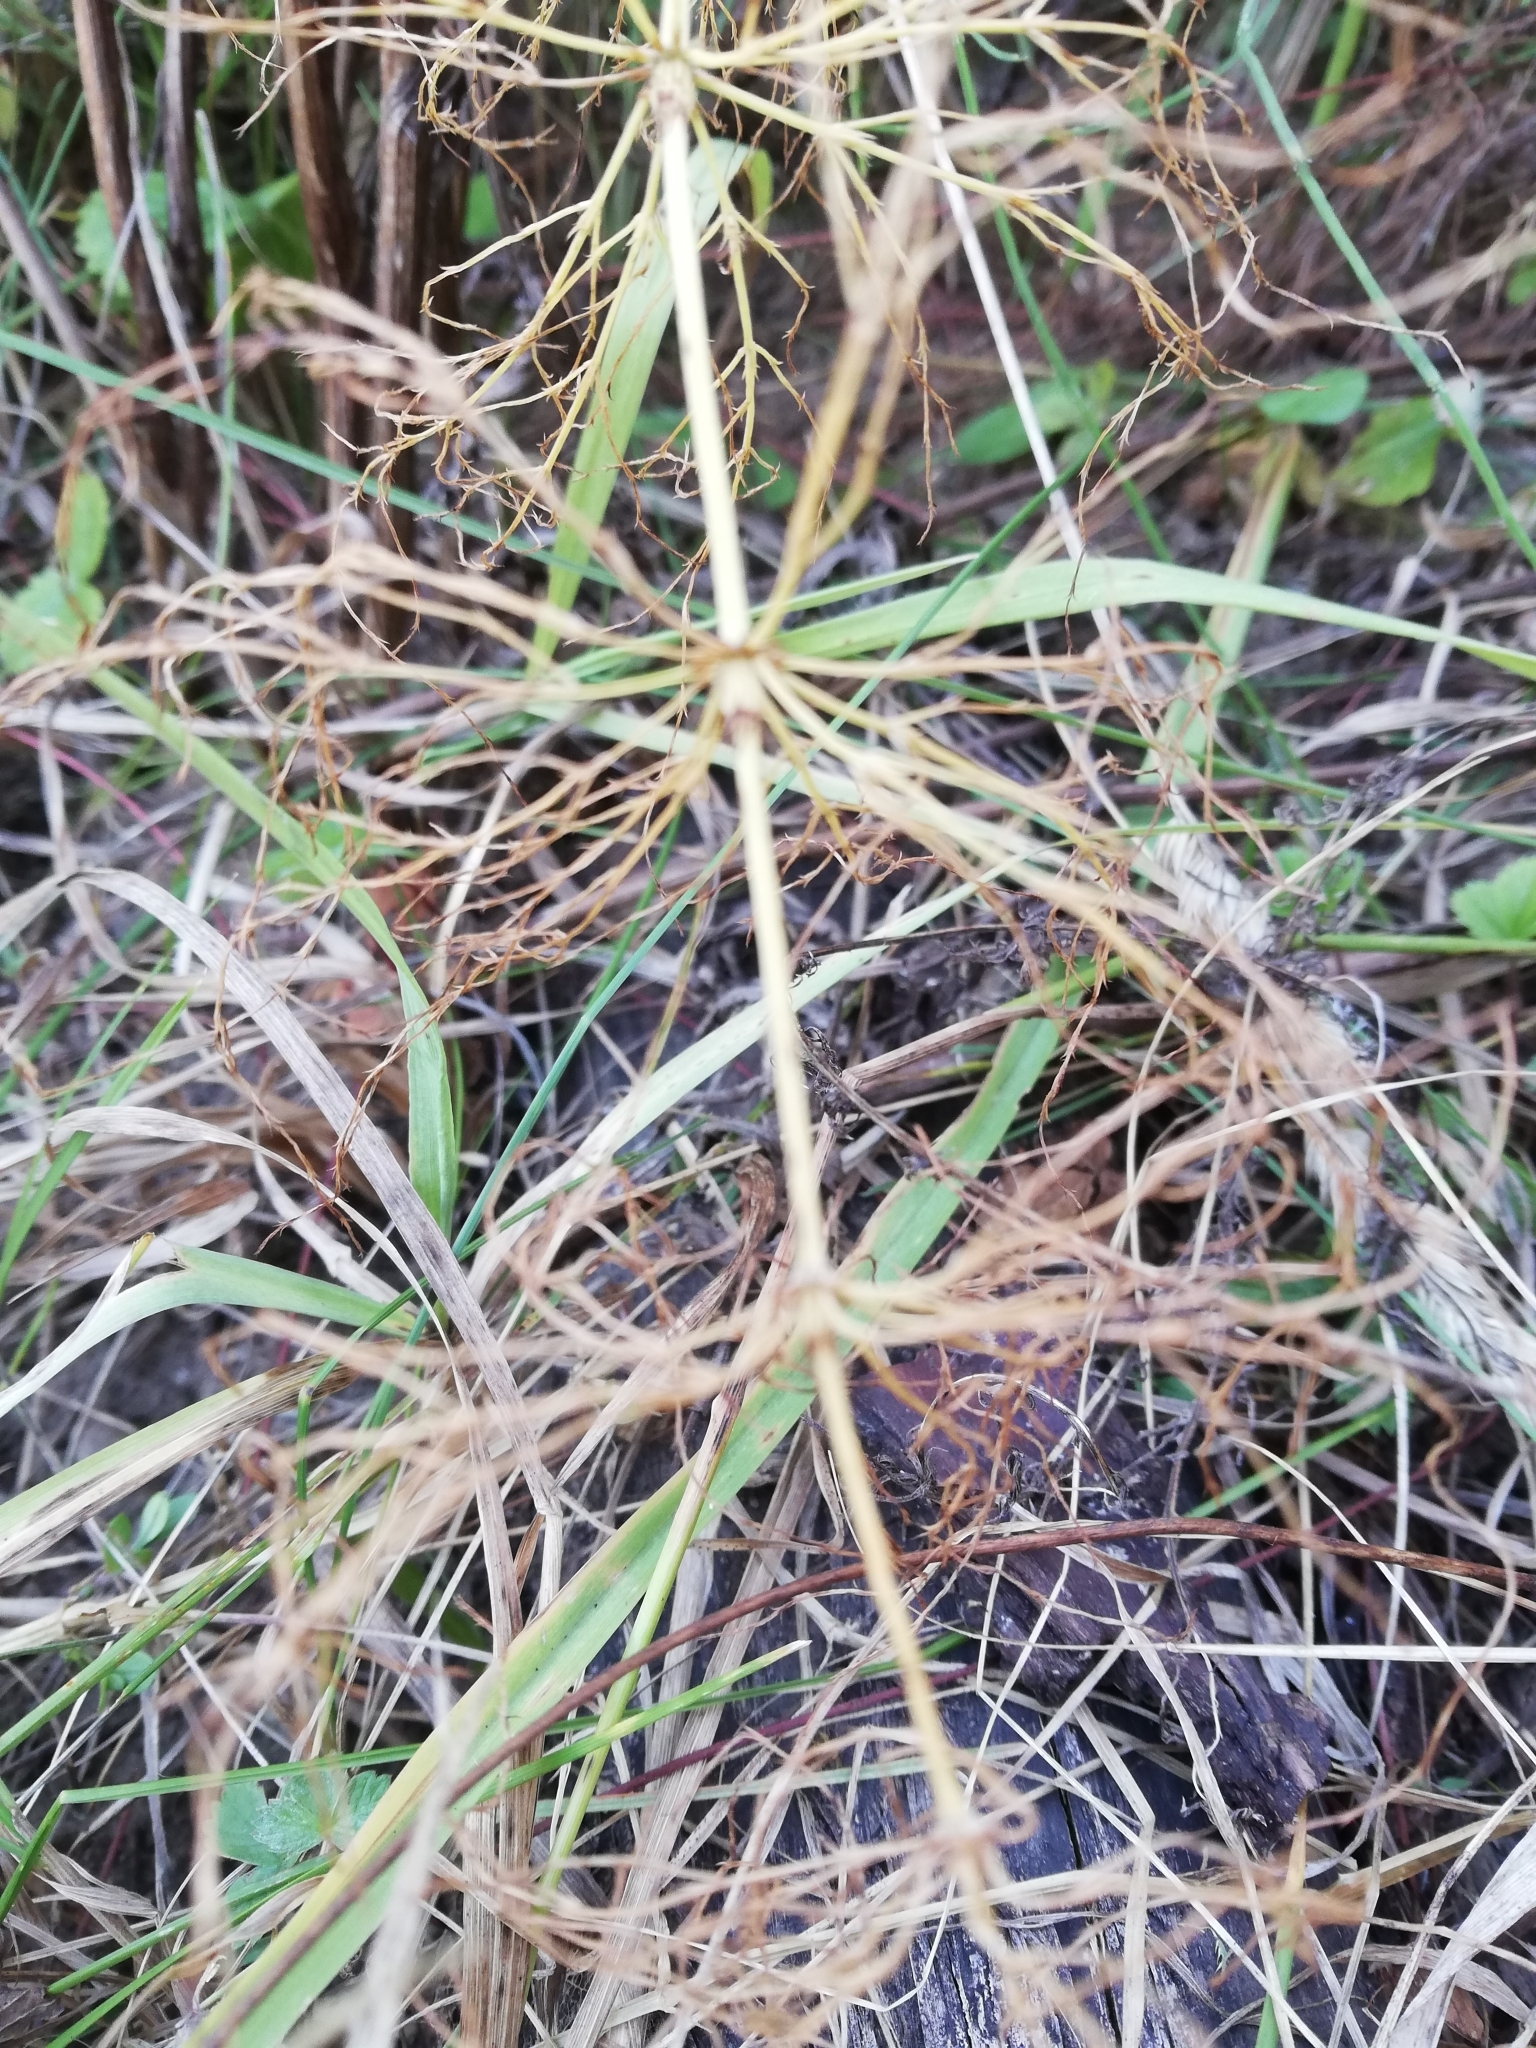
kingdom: Plantae
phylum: Tracheophyta
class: Polypodiopsida
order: Equisetales
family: Equisetaceae
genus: Equisetum
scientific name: Equisetum sylvaticum
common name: Wood horsetail
